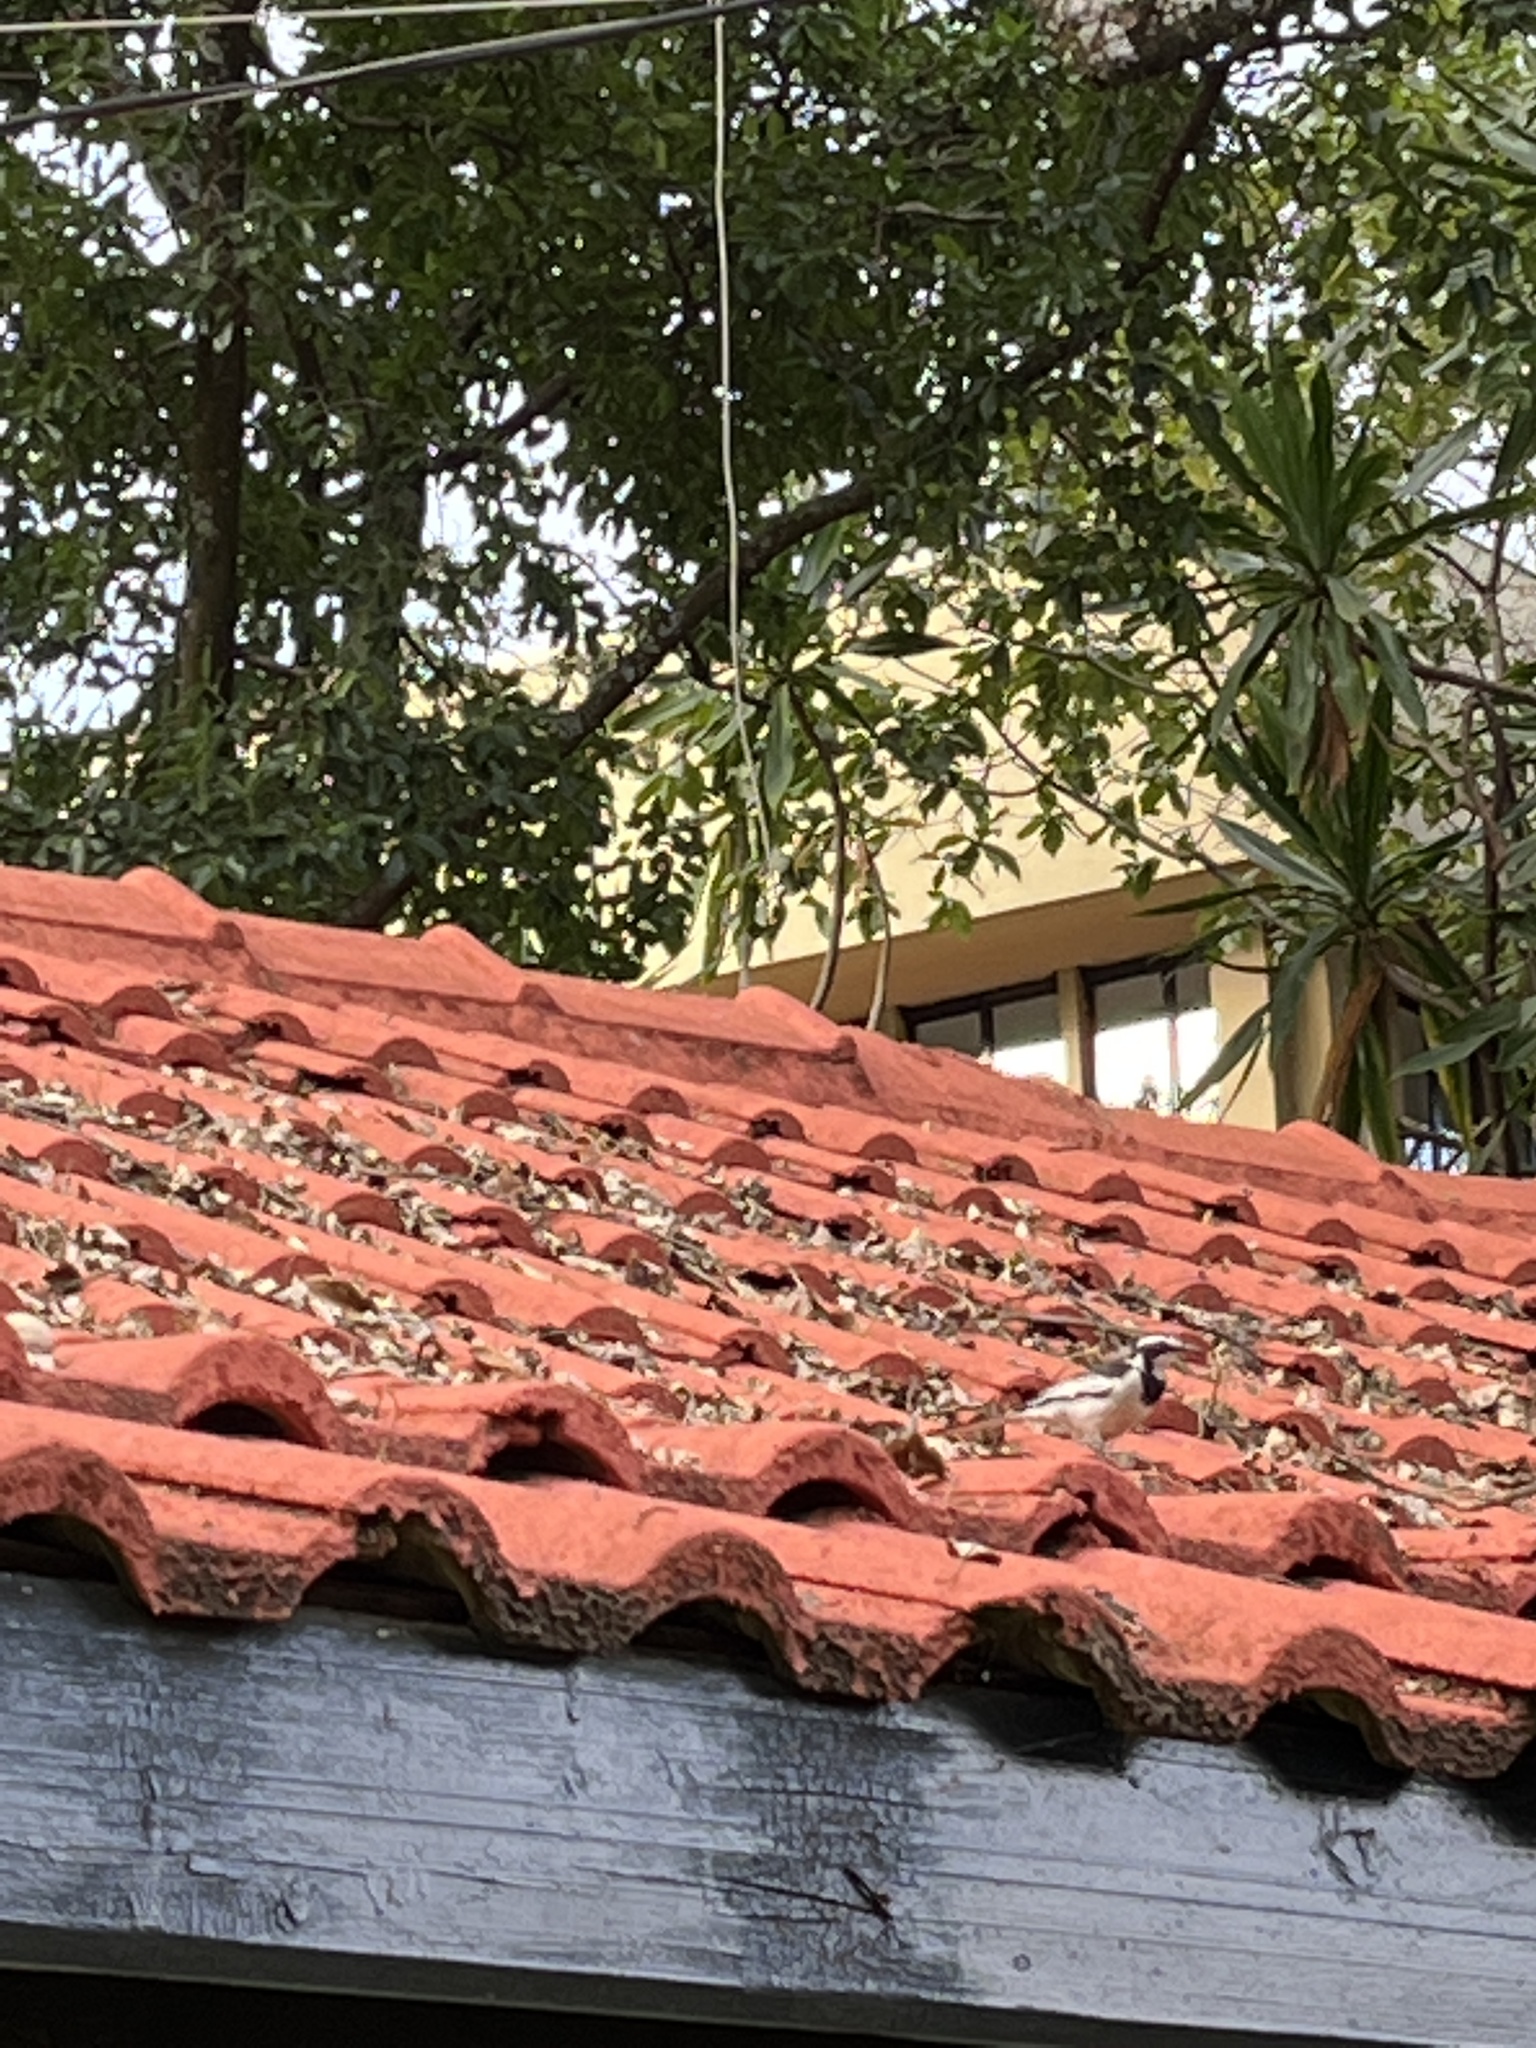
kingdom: Animalia
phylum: Chordata
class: Aves
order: Passeriformes
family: Motacillidae
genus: Motacilla
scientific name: Motacilla aguimp
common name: African pied wagtail
